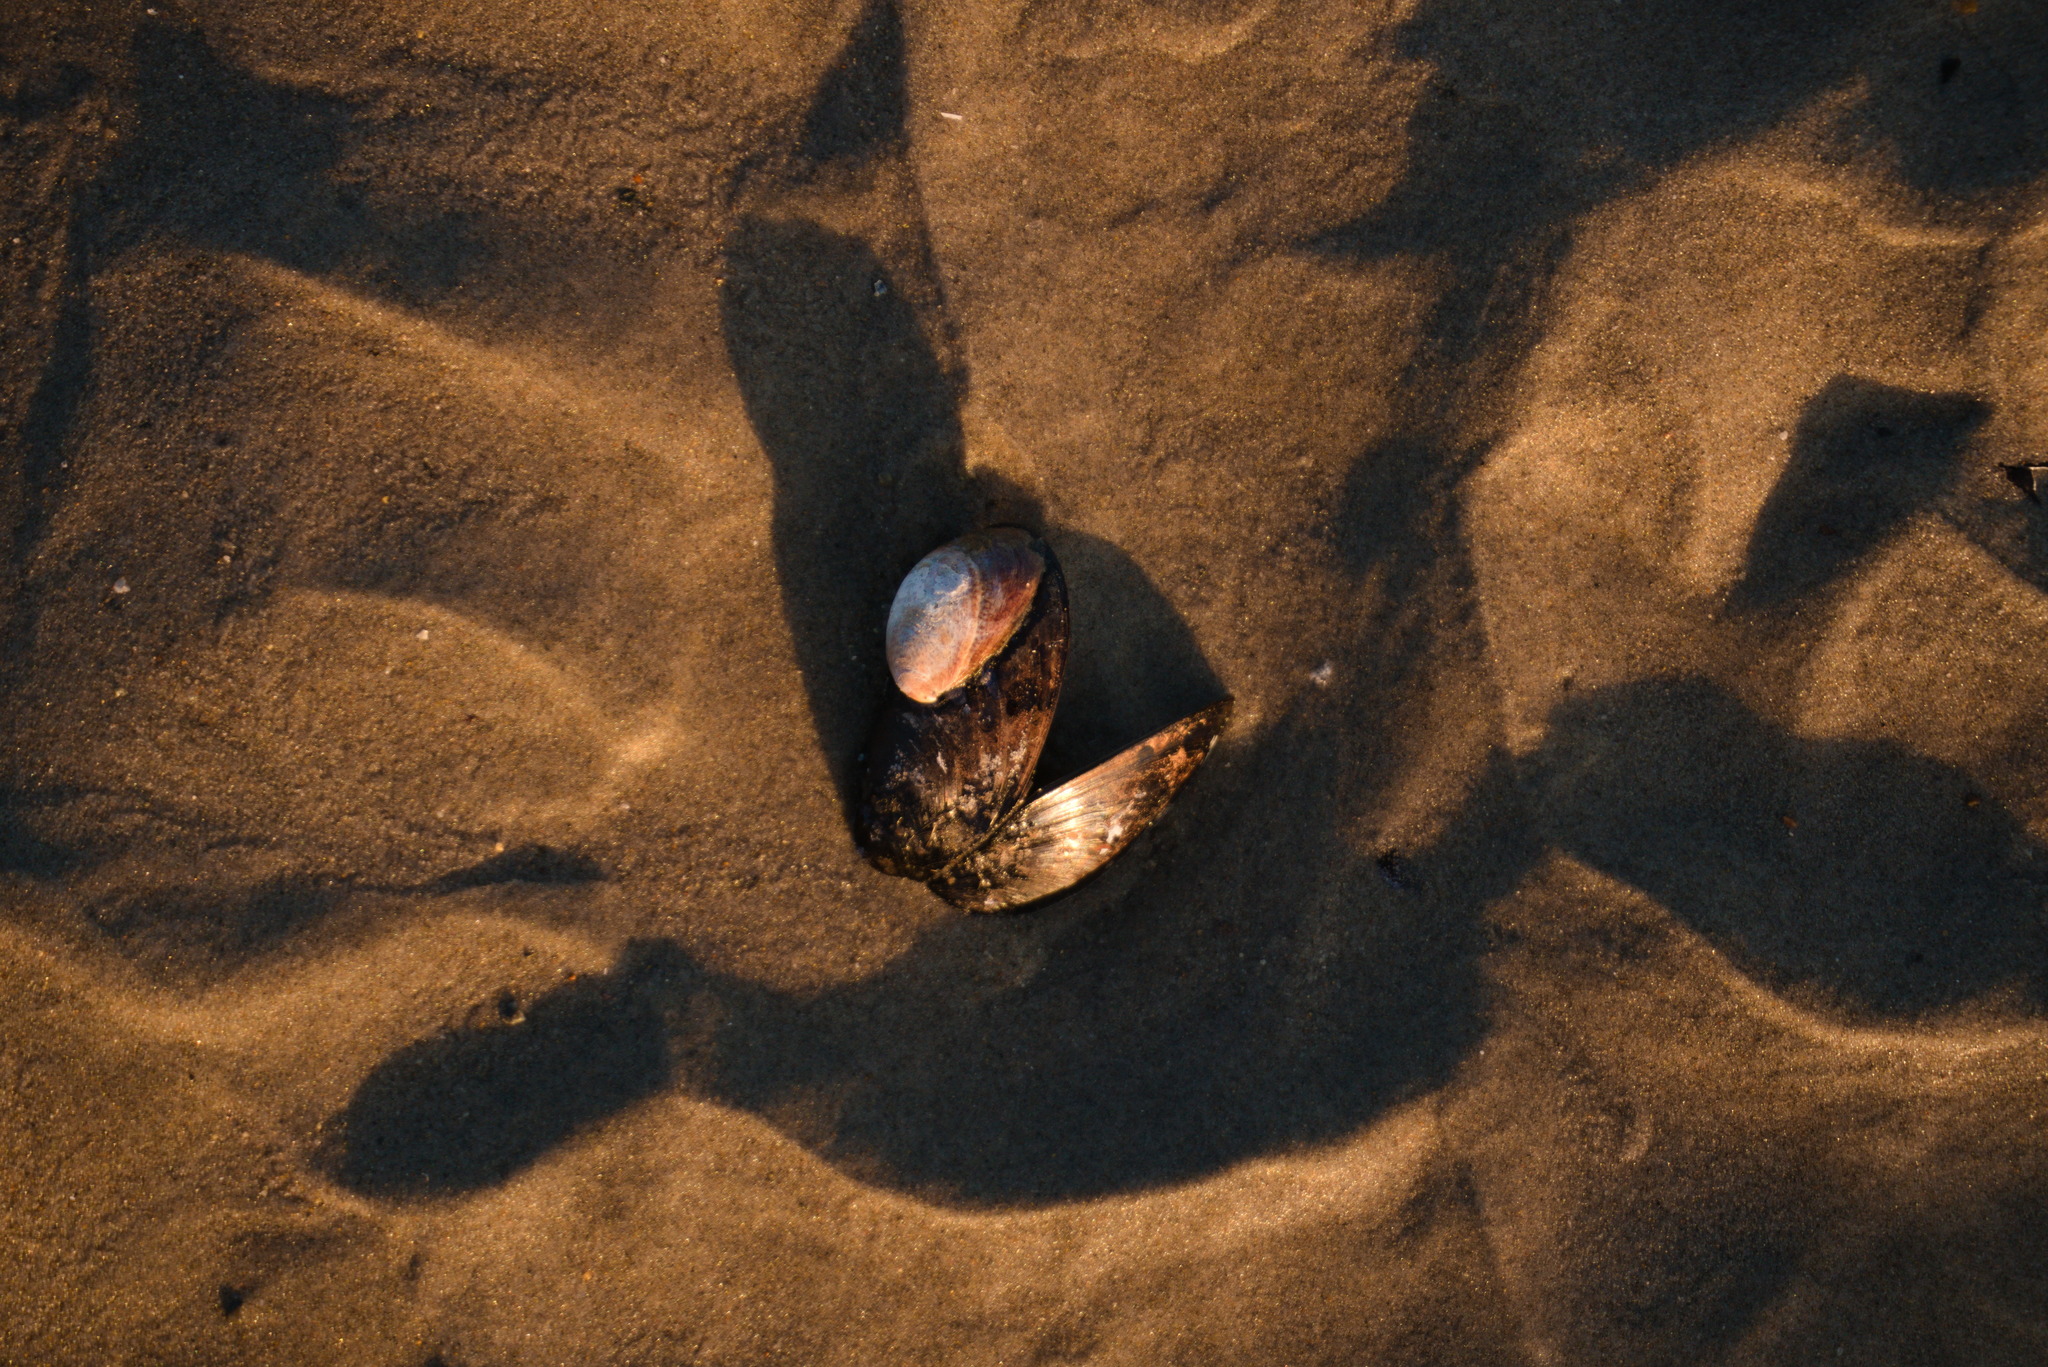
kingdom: Animalia
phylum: Mollusca
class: Gastropoda
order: Littorinimorpha
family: Calyptraeidae
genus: Crepidula
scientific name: Crepidula fornicata
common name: Slipper limpet
